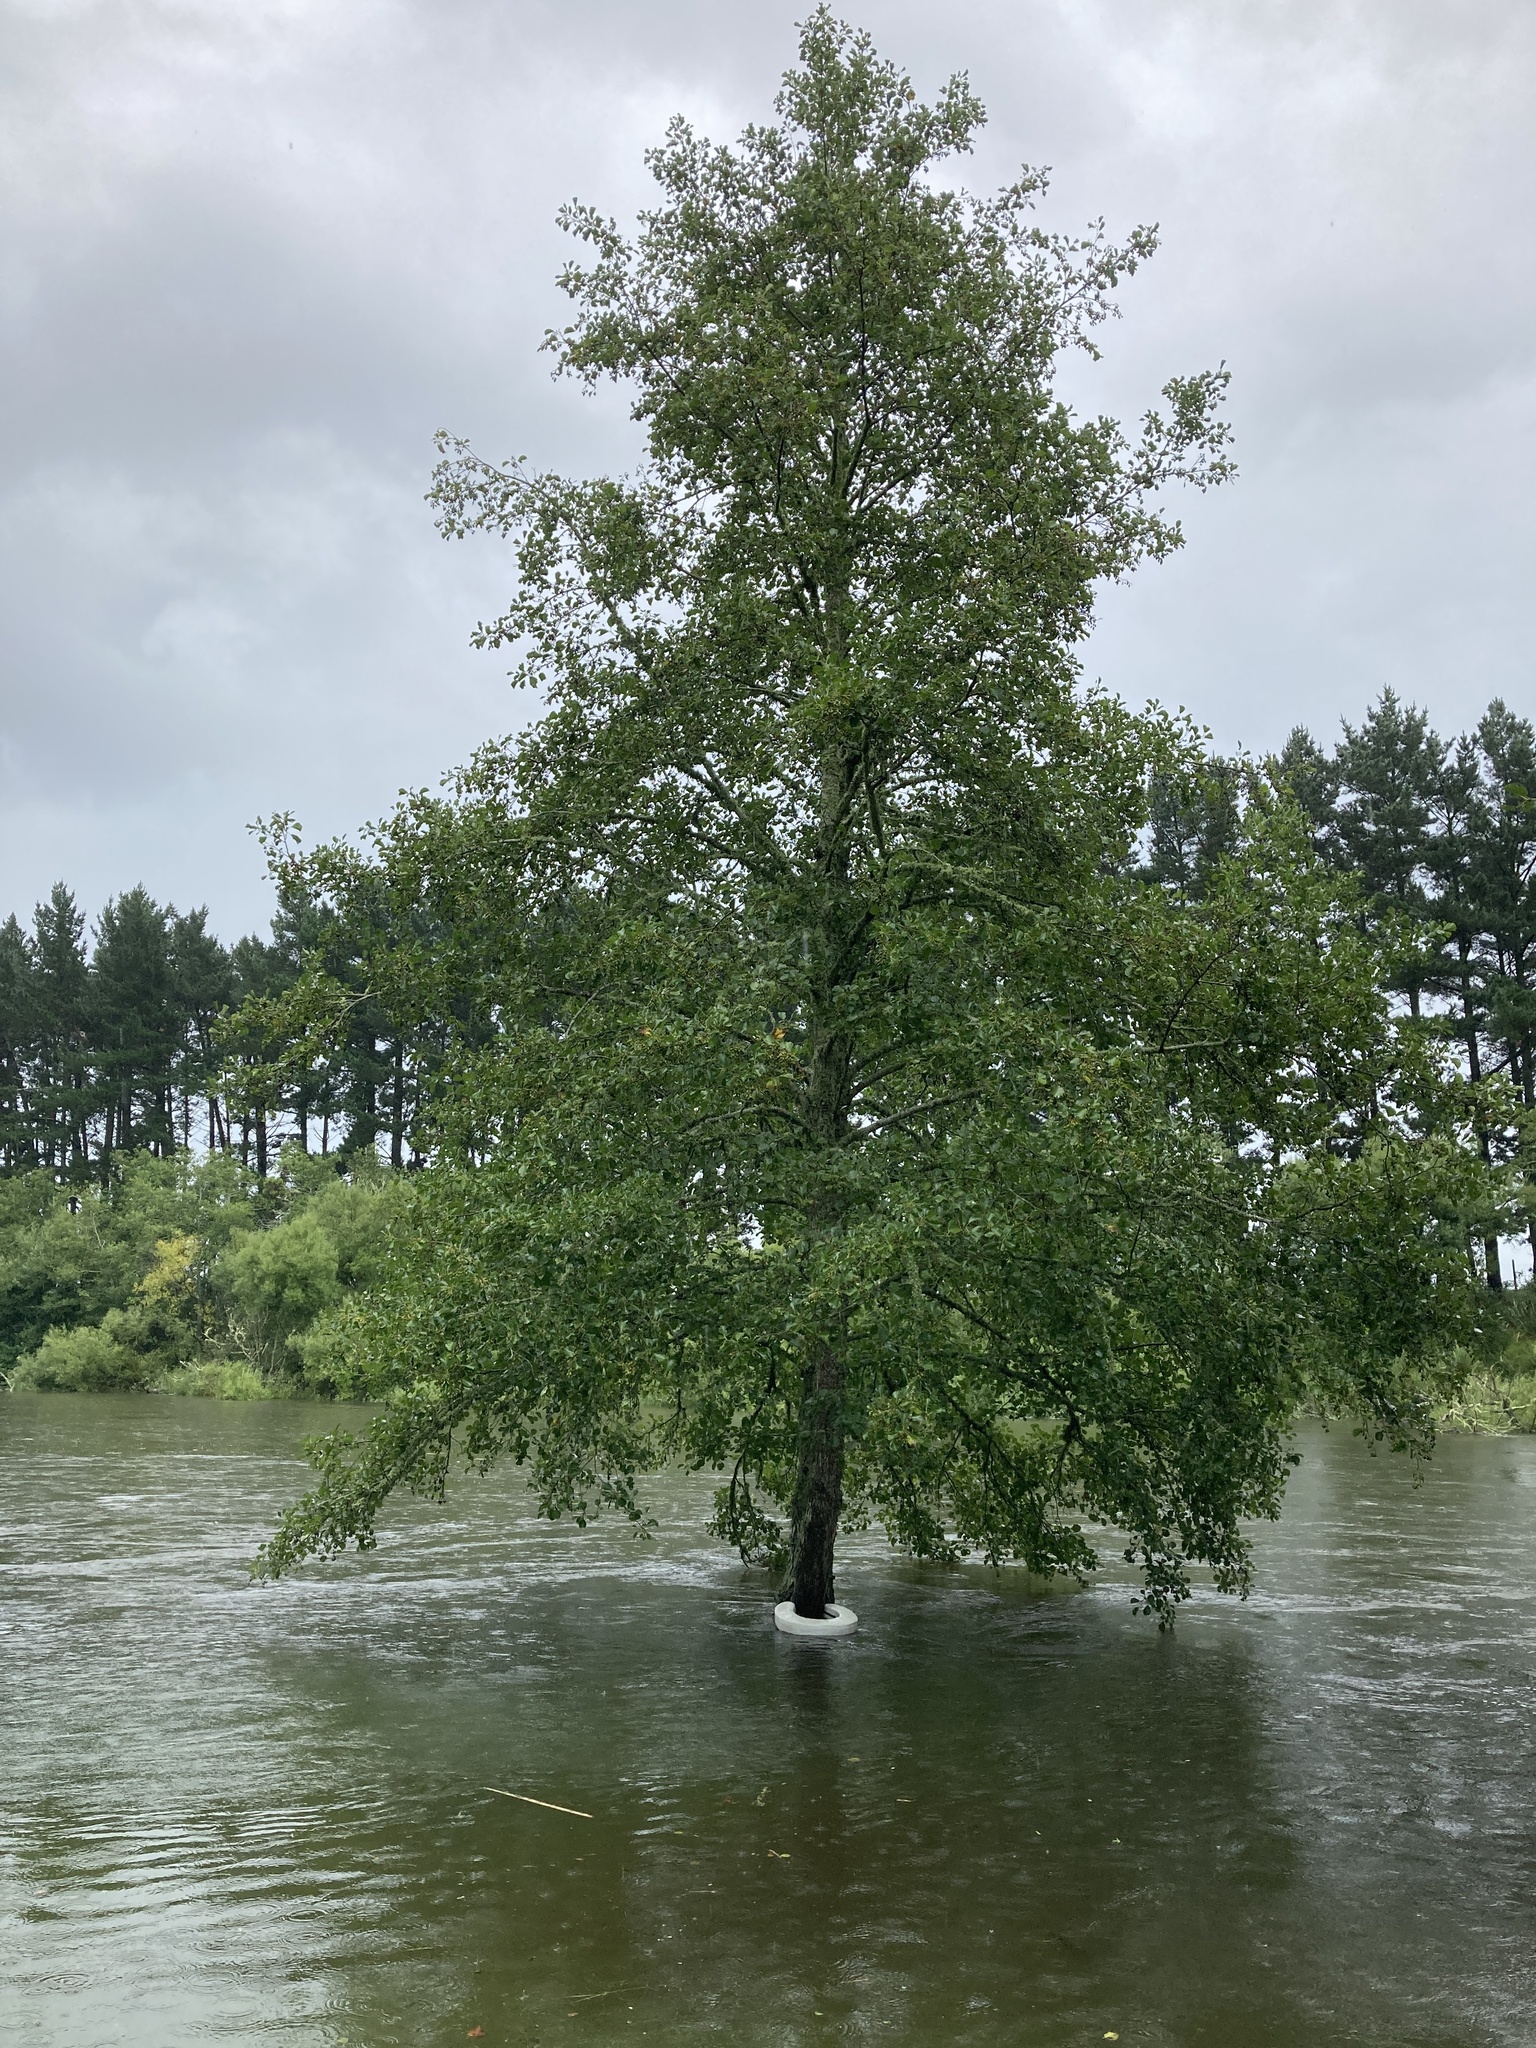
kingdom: Plantae
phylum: Tracheophyta
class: Magnoliopsida
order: Fagales
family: Betulaceae
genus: Alnus
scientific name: Alnus glutinosa
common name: Black alder
